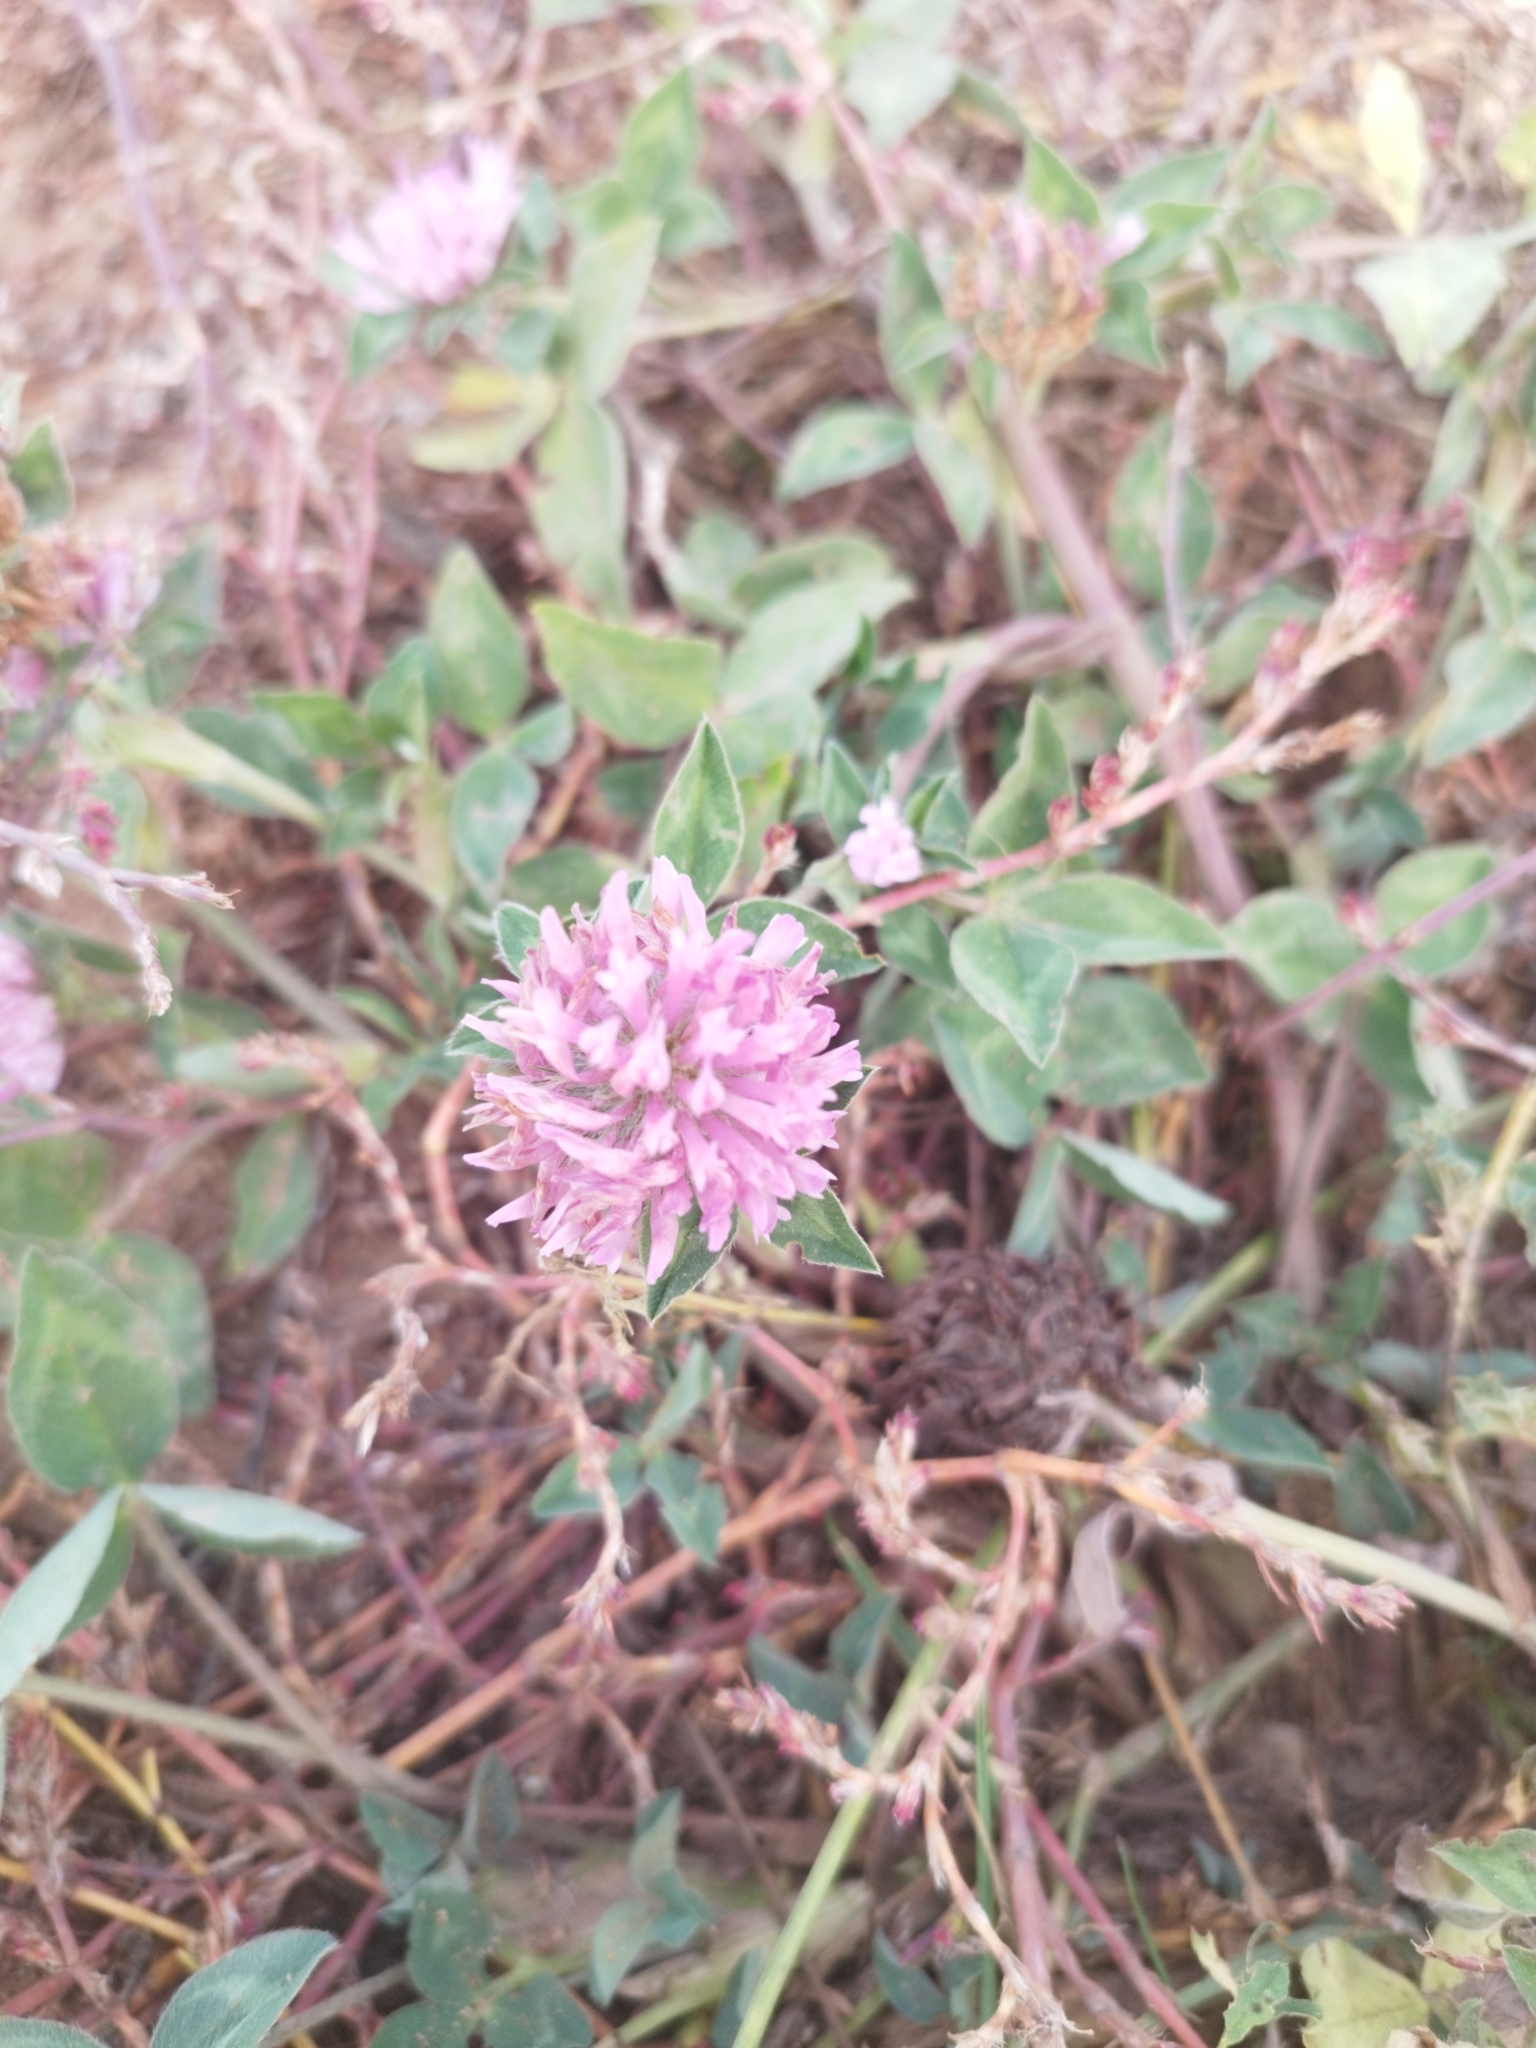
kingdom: Plantae
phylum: Tracheophyta
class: Magnoliopsida
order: Fabales
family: Fabaceae
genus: Trifolium
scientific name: Trifolium pratense
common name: Red clover
